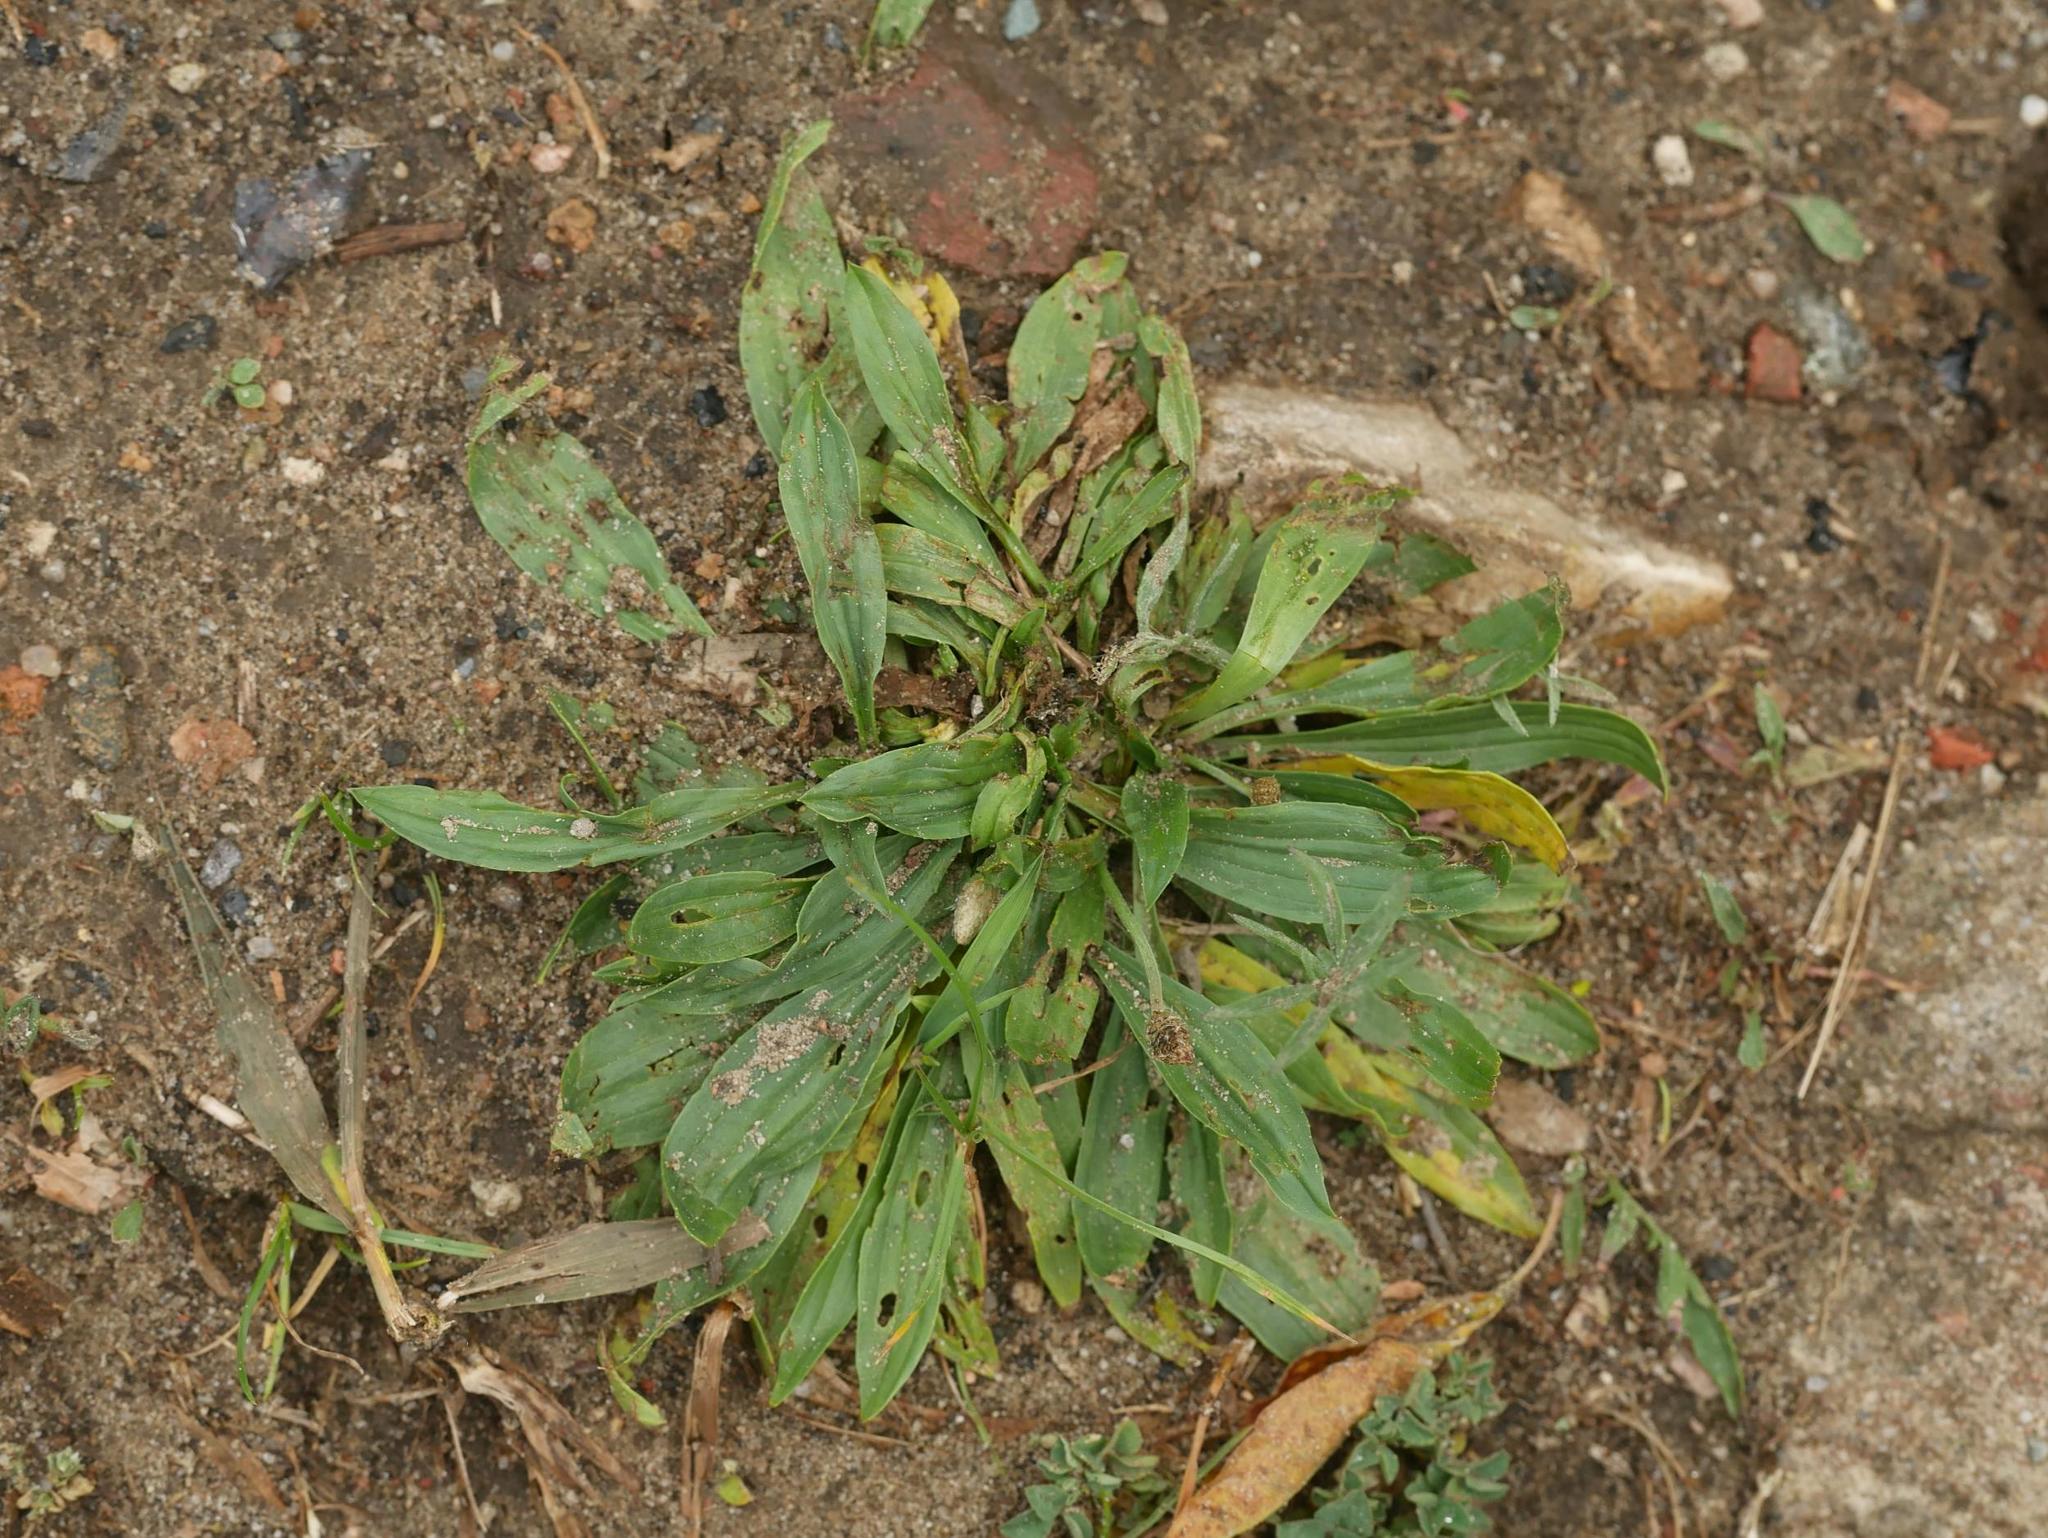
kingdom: Plantae
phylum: Tracheophyta
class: Magnoliopsida
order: Lamiales
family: Plantaginaceae
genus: Plantago
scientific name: Plantago lanceolata
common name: Ribwort plantain
